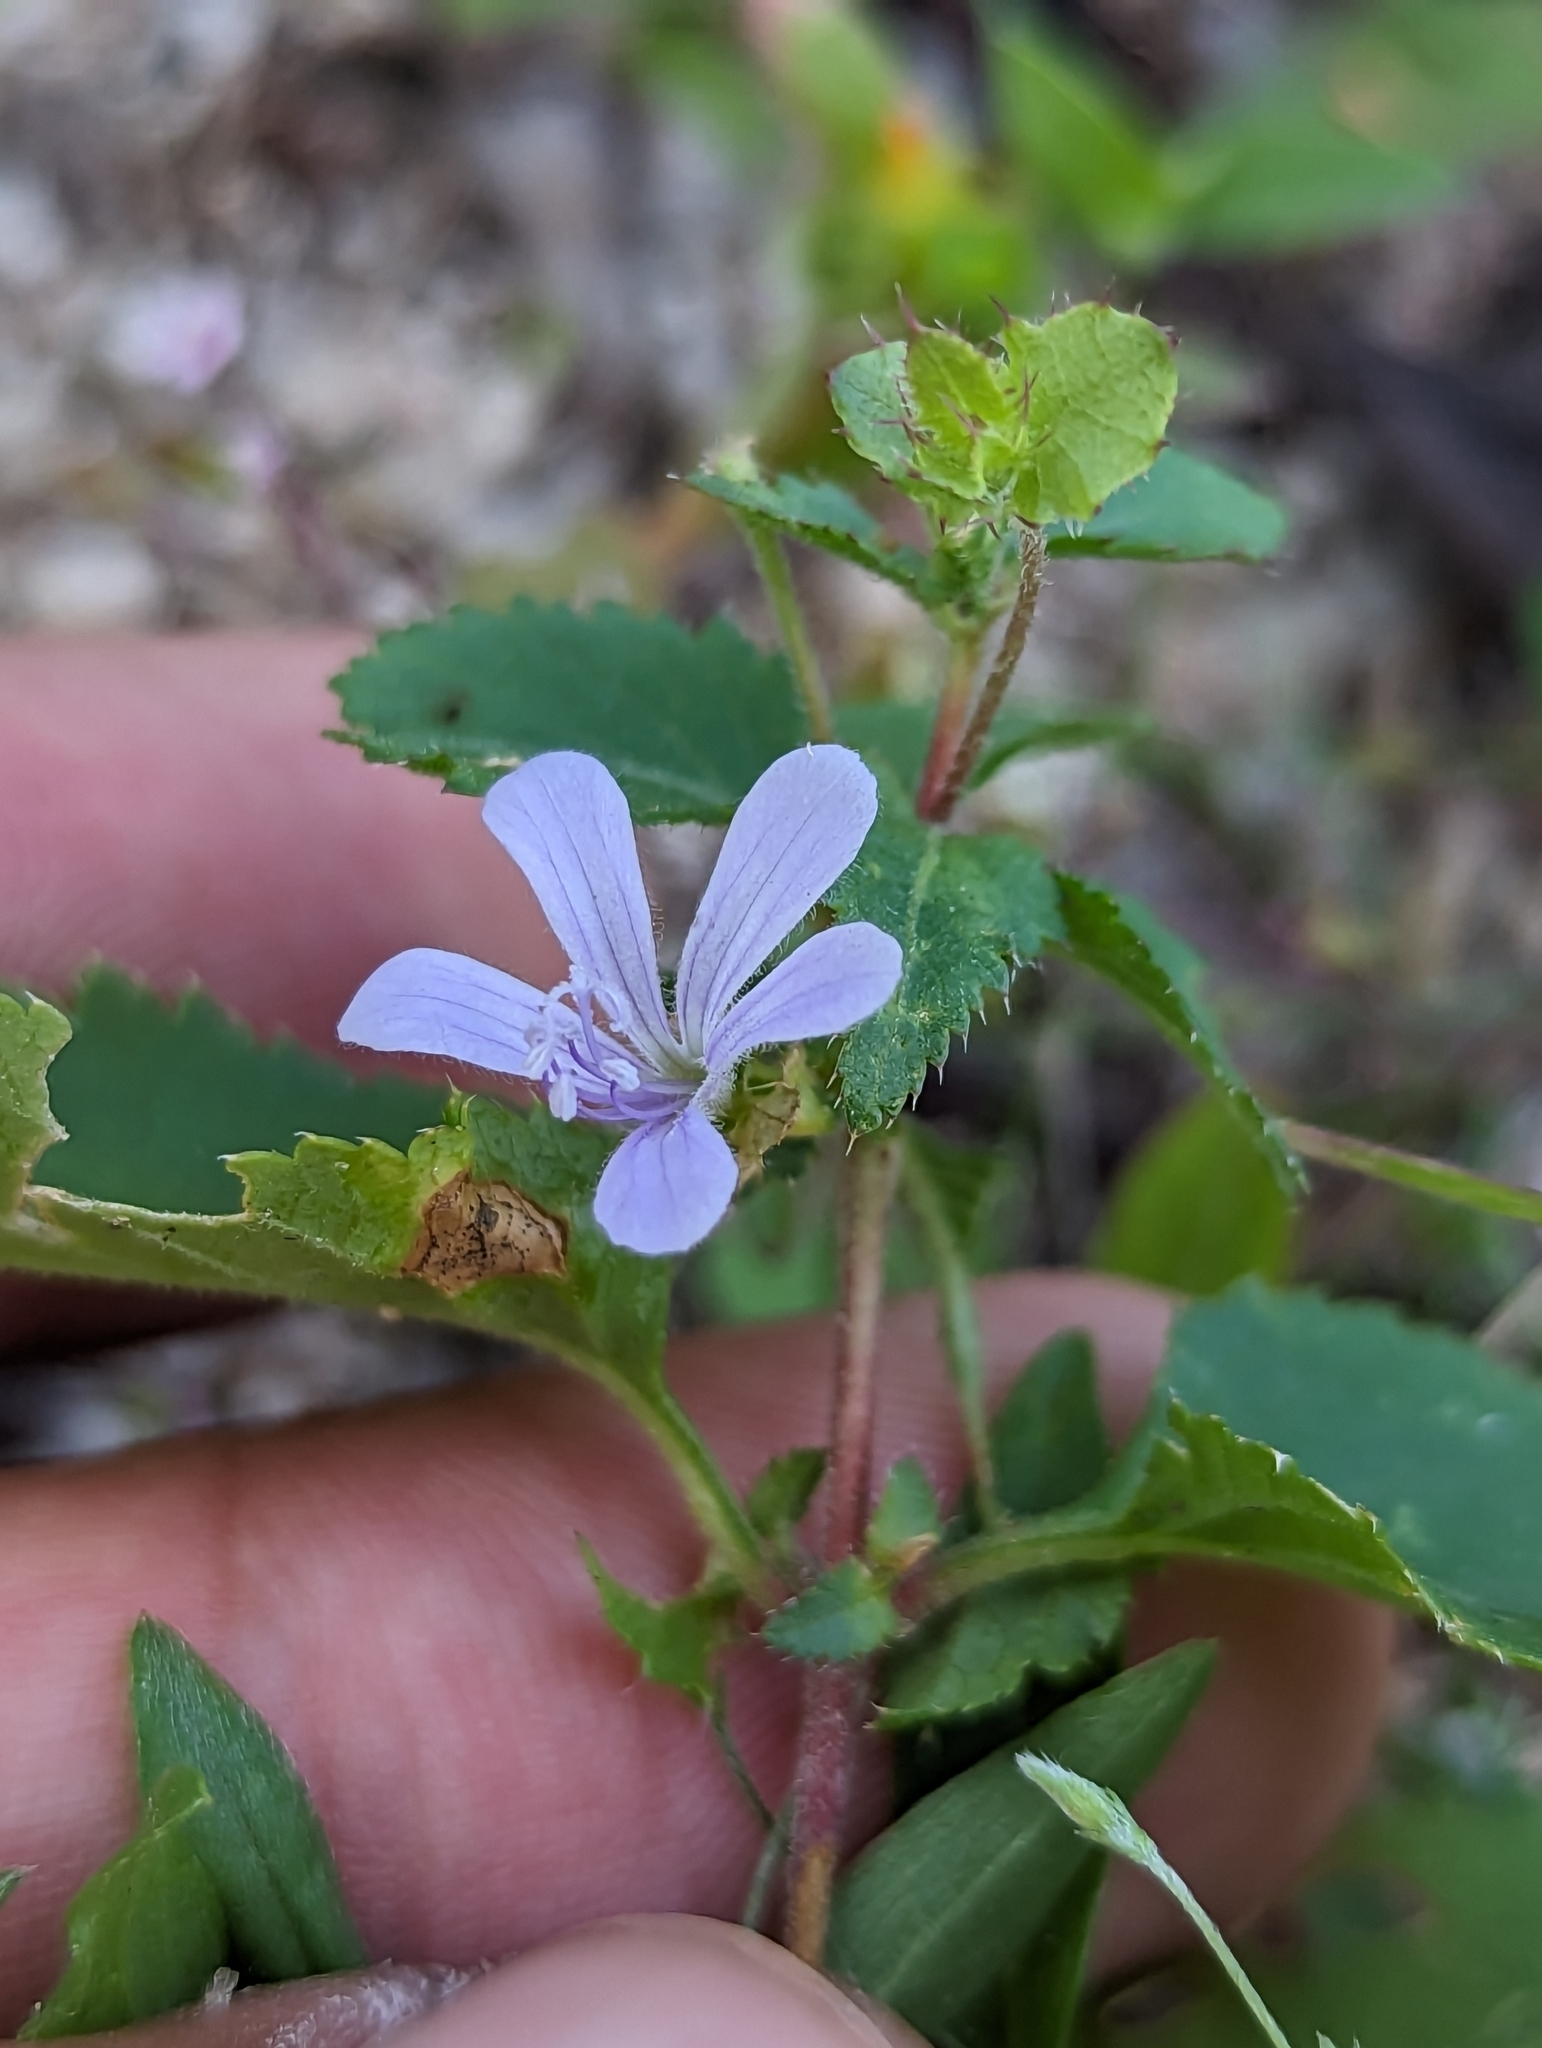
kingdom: Plantae
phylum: Tracheophyta
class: Magnoliopsida
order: Ericales
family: Polemoniaceae
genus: Loeselia
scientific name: Loeselia ciliata
